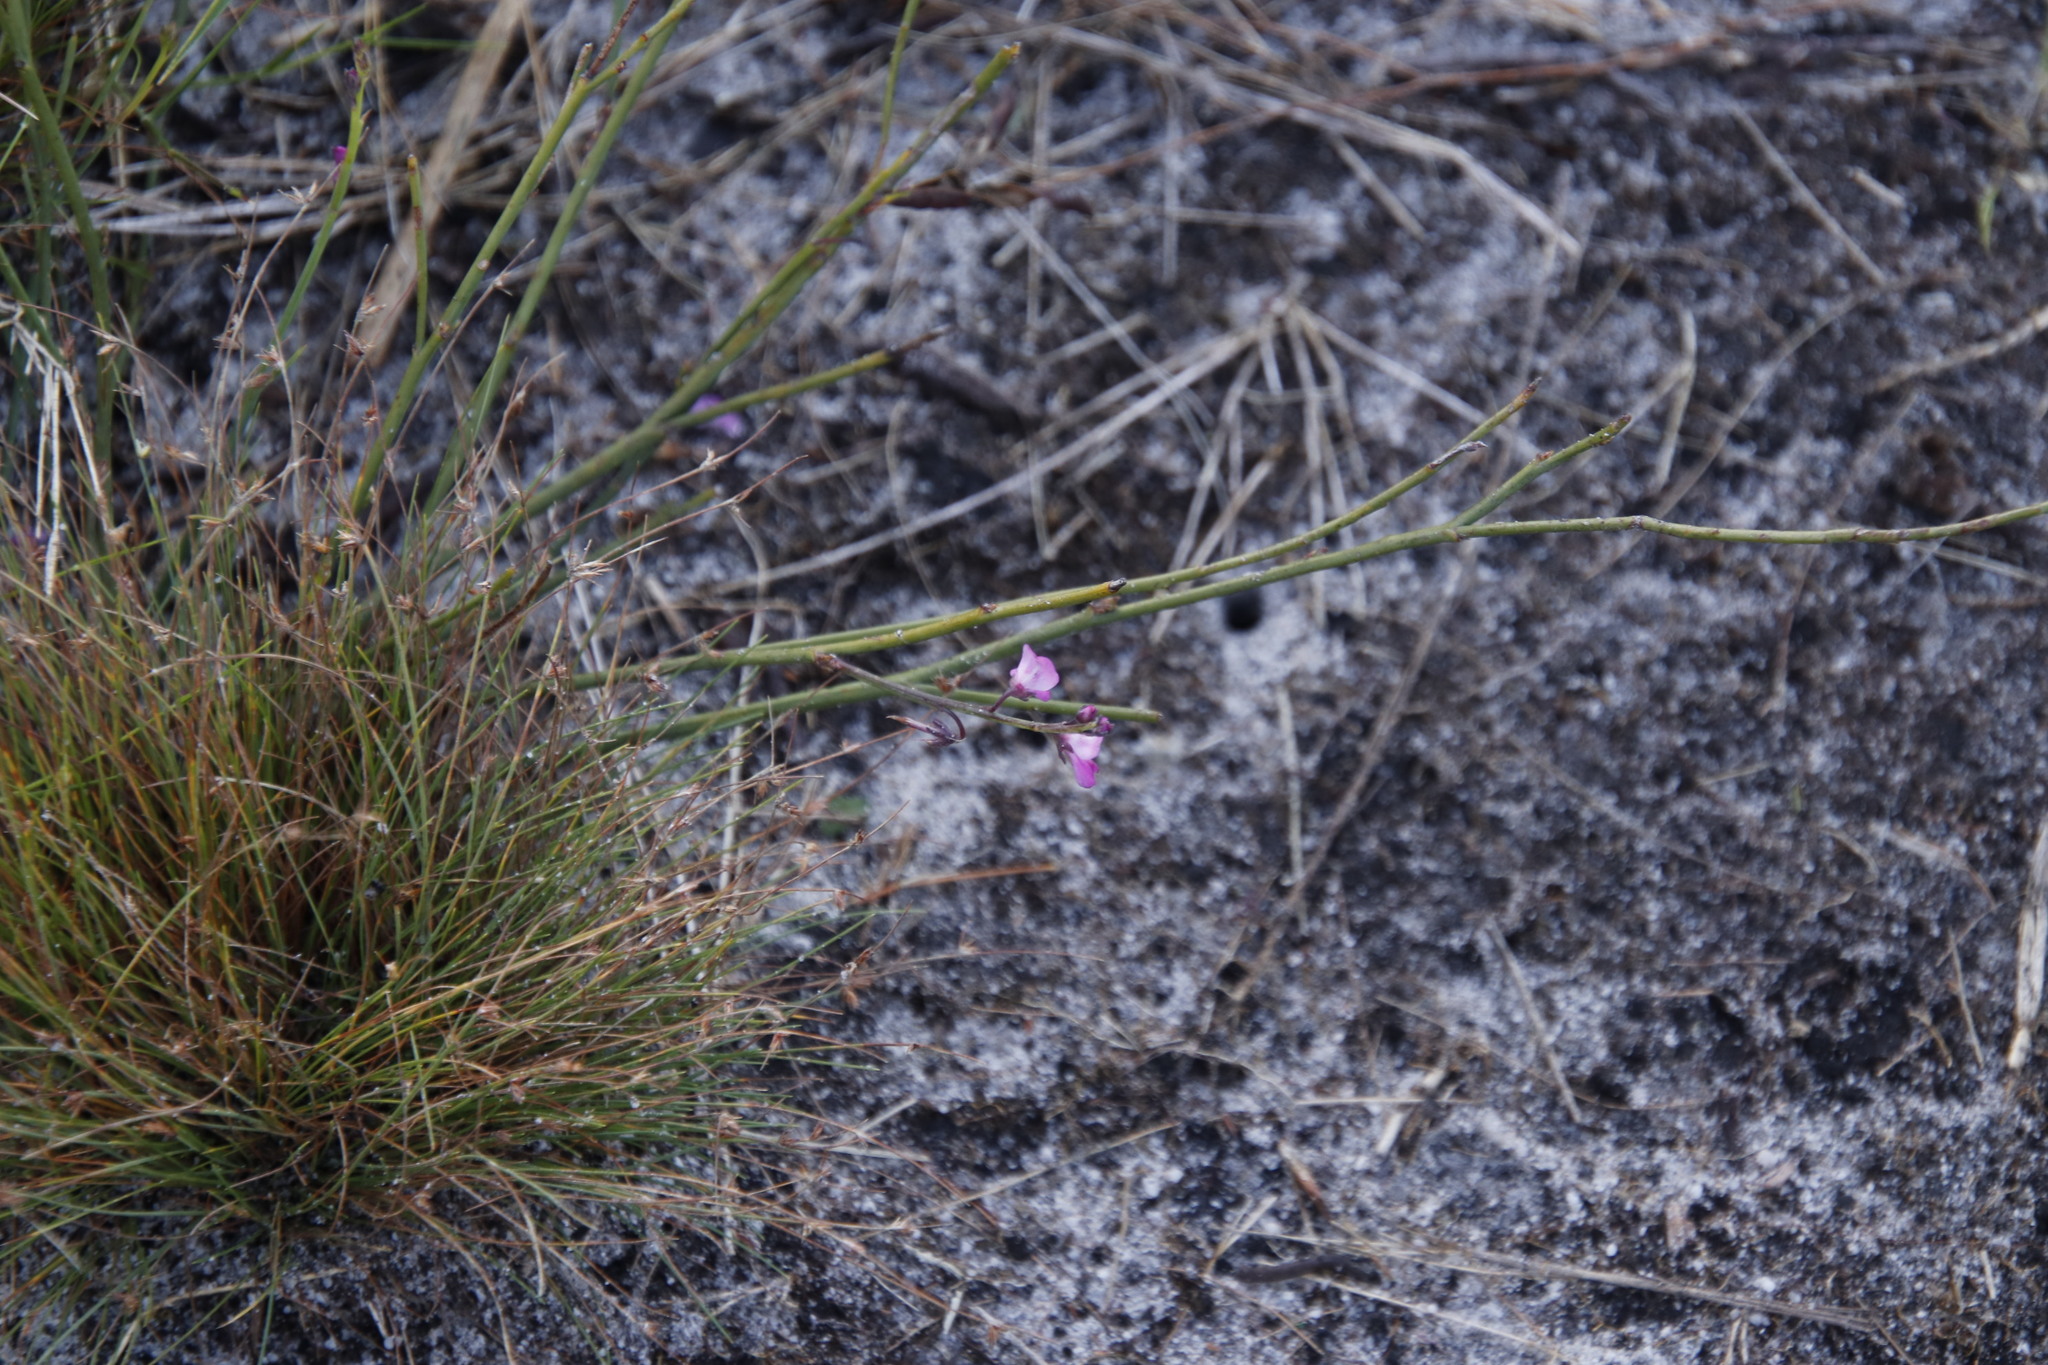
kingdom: Plantae
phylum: Tracheophyta
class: Magnoliopsida
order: Fabales
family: Fabaceae
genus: Indigofera
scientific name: Indigofera ionii
